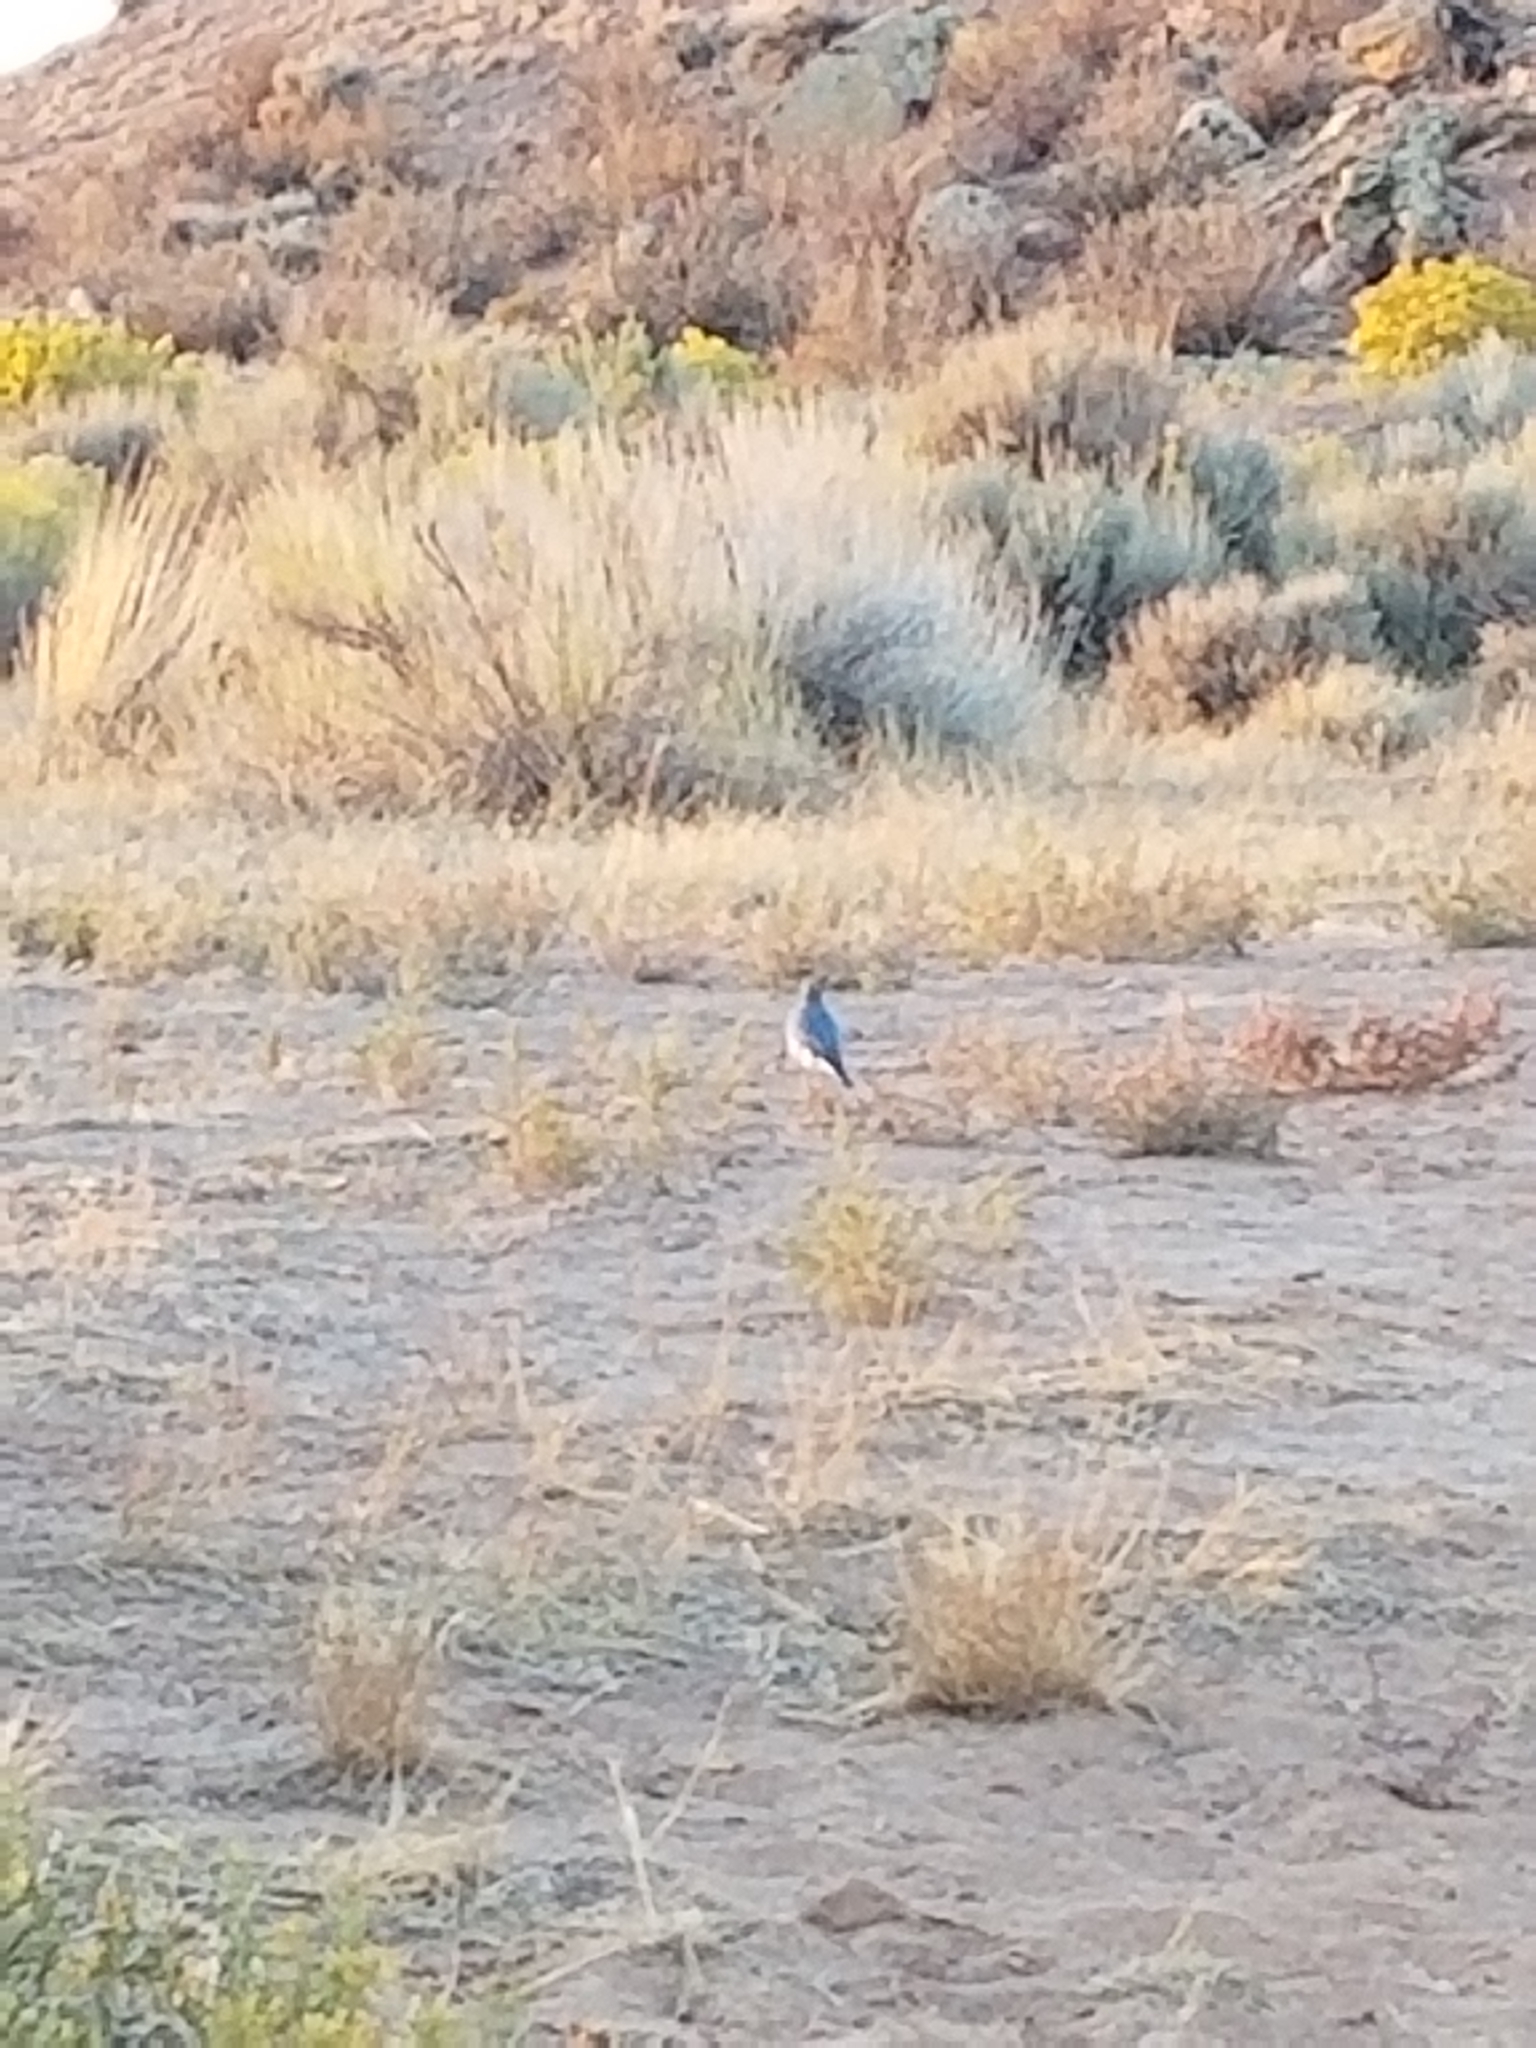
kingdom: Animalia
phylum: Chordata
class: Aves
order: Passeriformes
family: Turdidae
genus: Sialia
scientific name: Sialia currucoides
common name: Mountain bluebird
